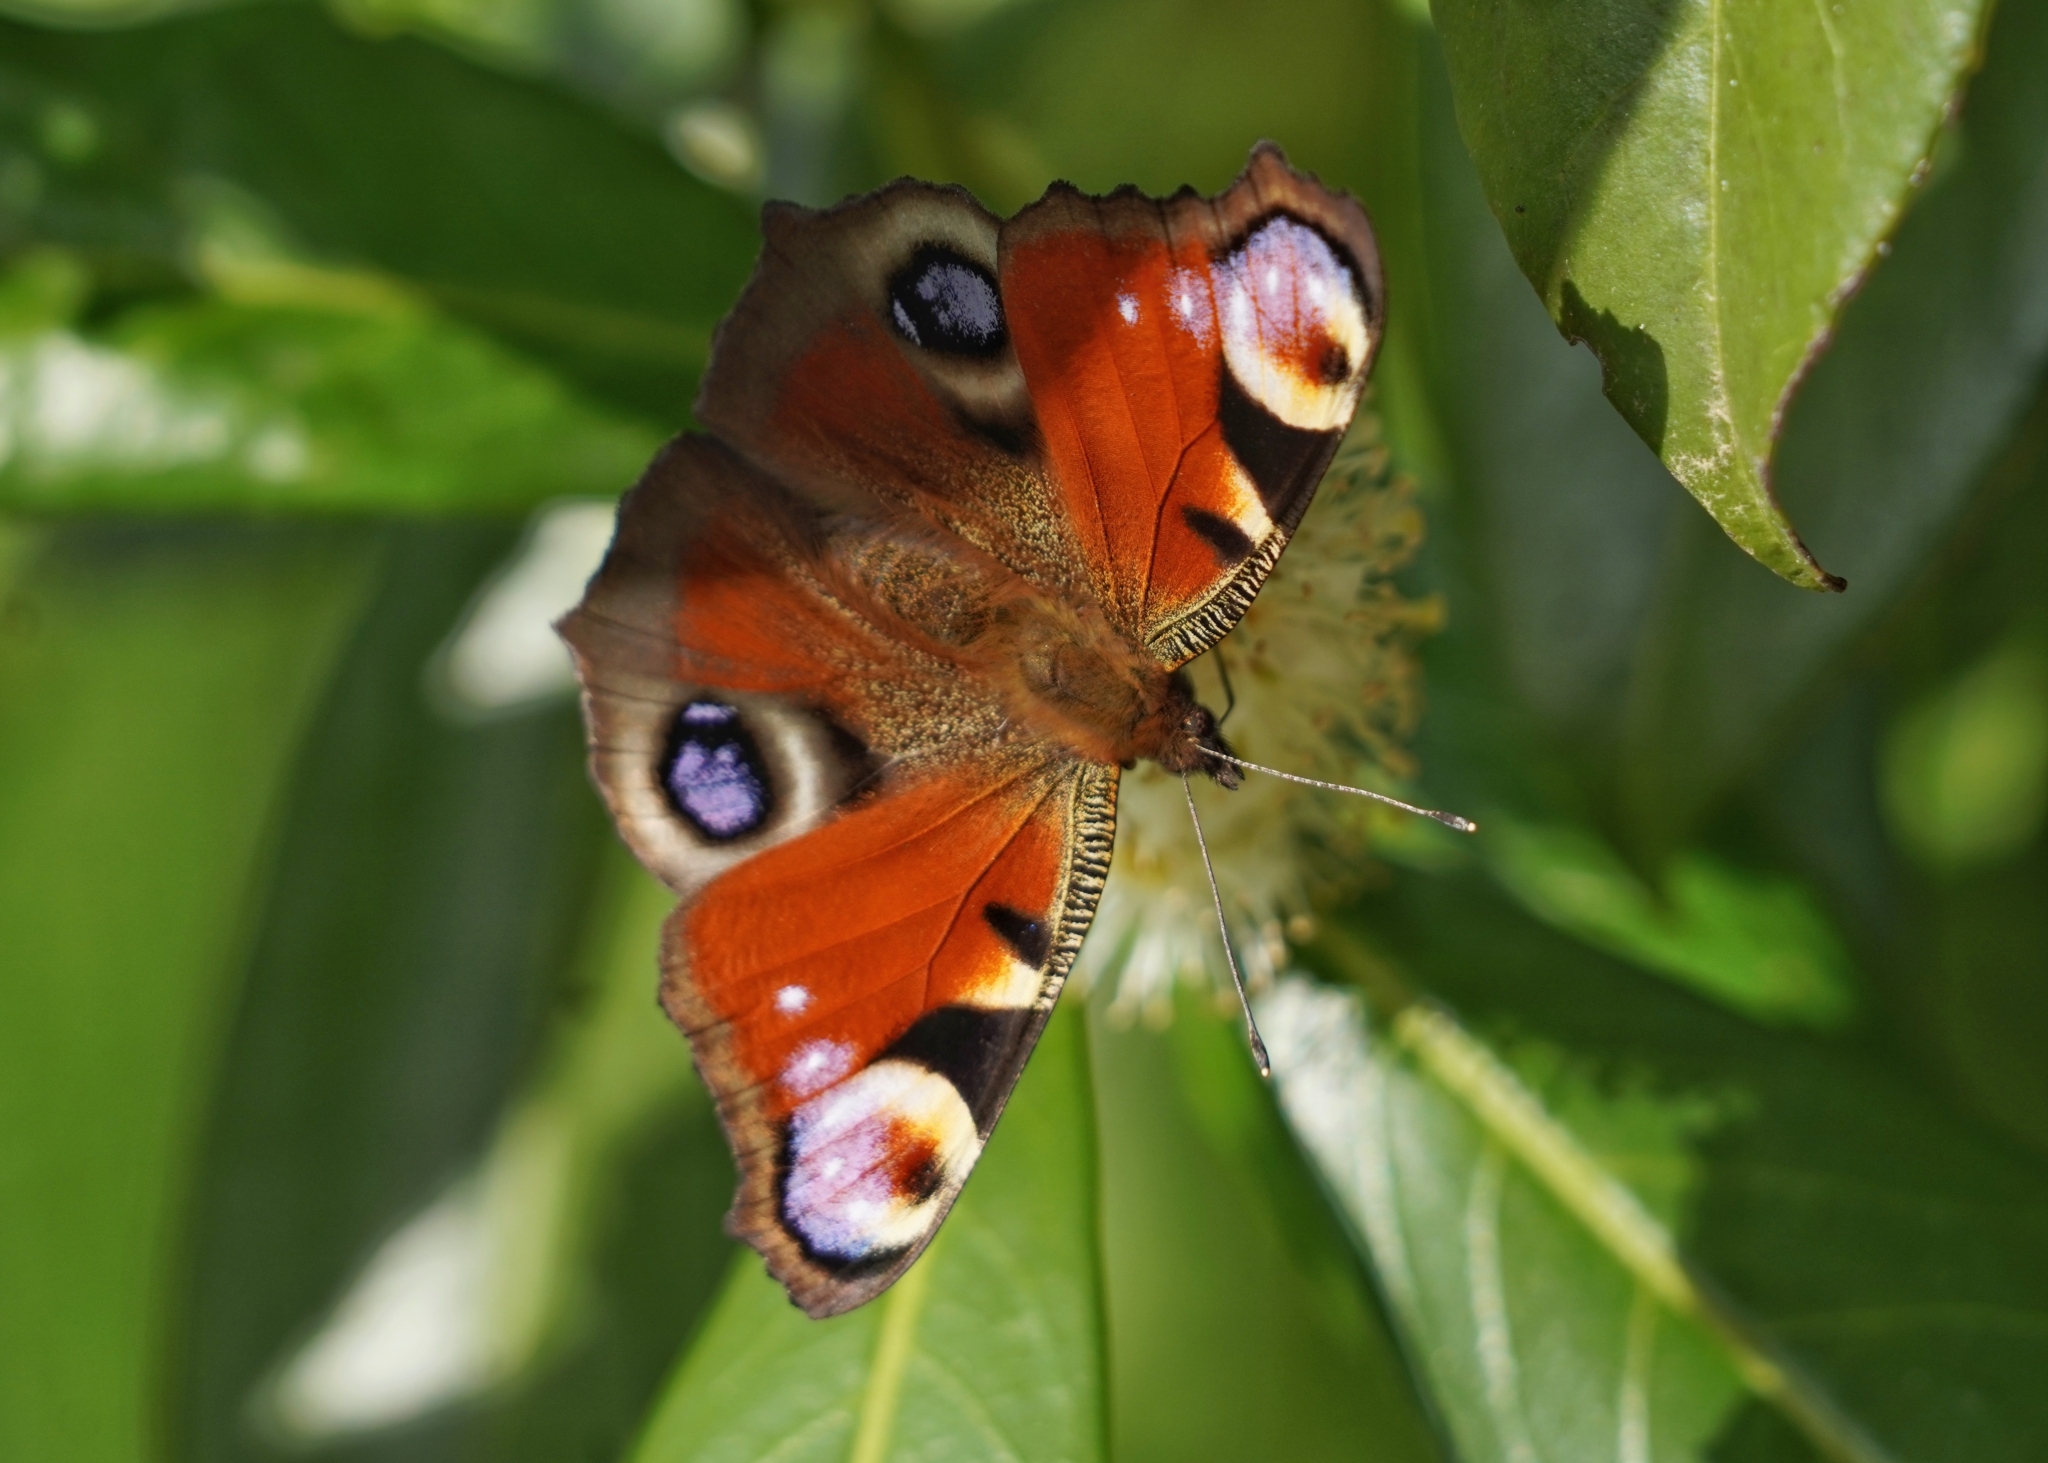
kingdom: Animalia
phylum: Arthropoda
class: Insecta
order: Lepidoptera
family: Nymphalidae
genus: Aglais
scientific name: Aglais io
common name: Peacock
